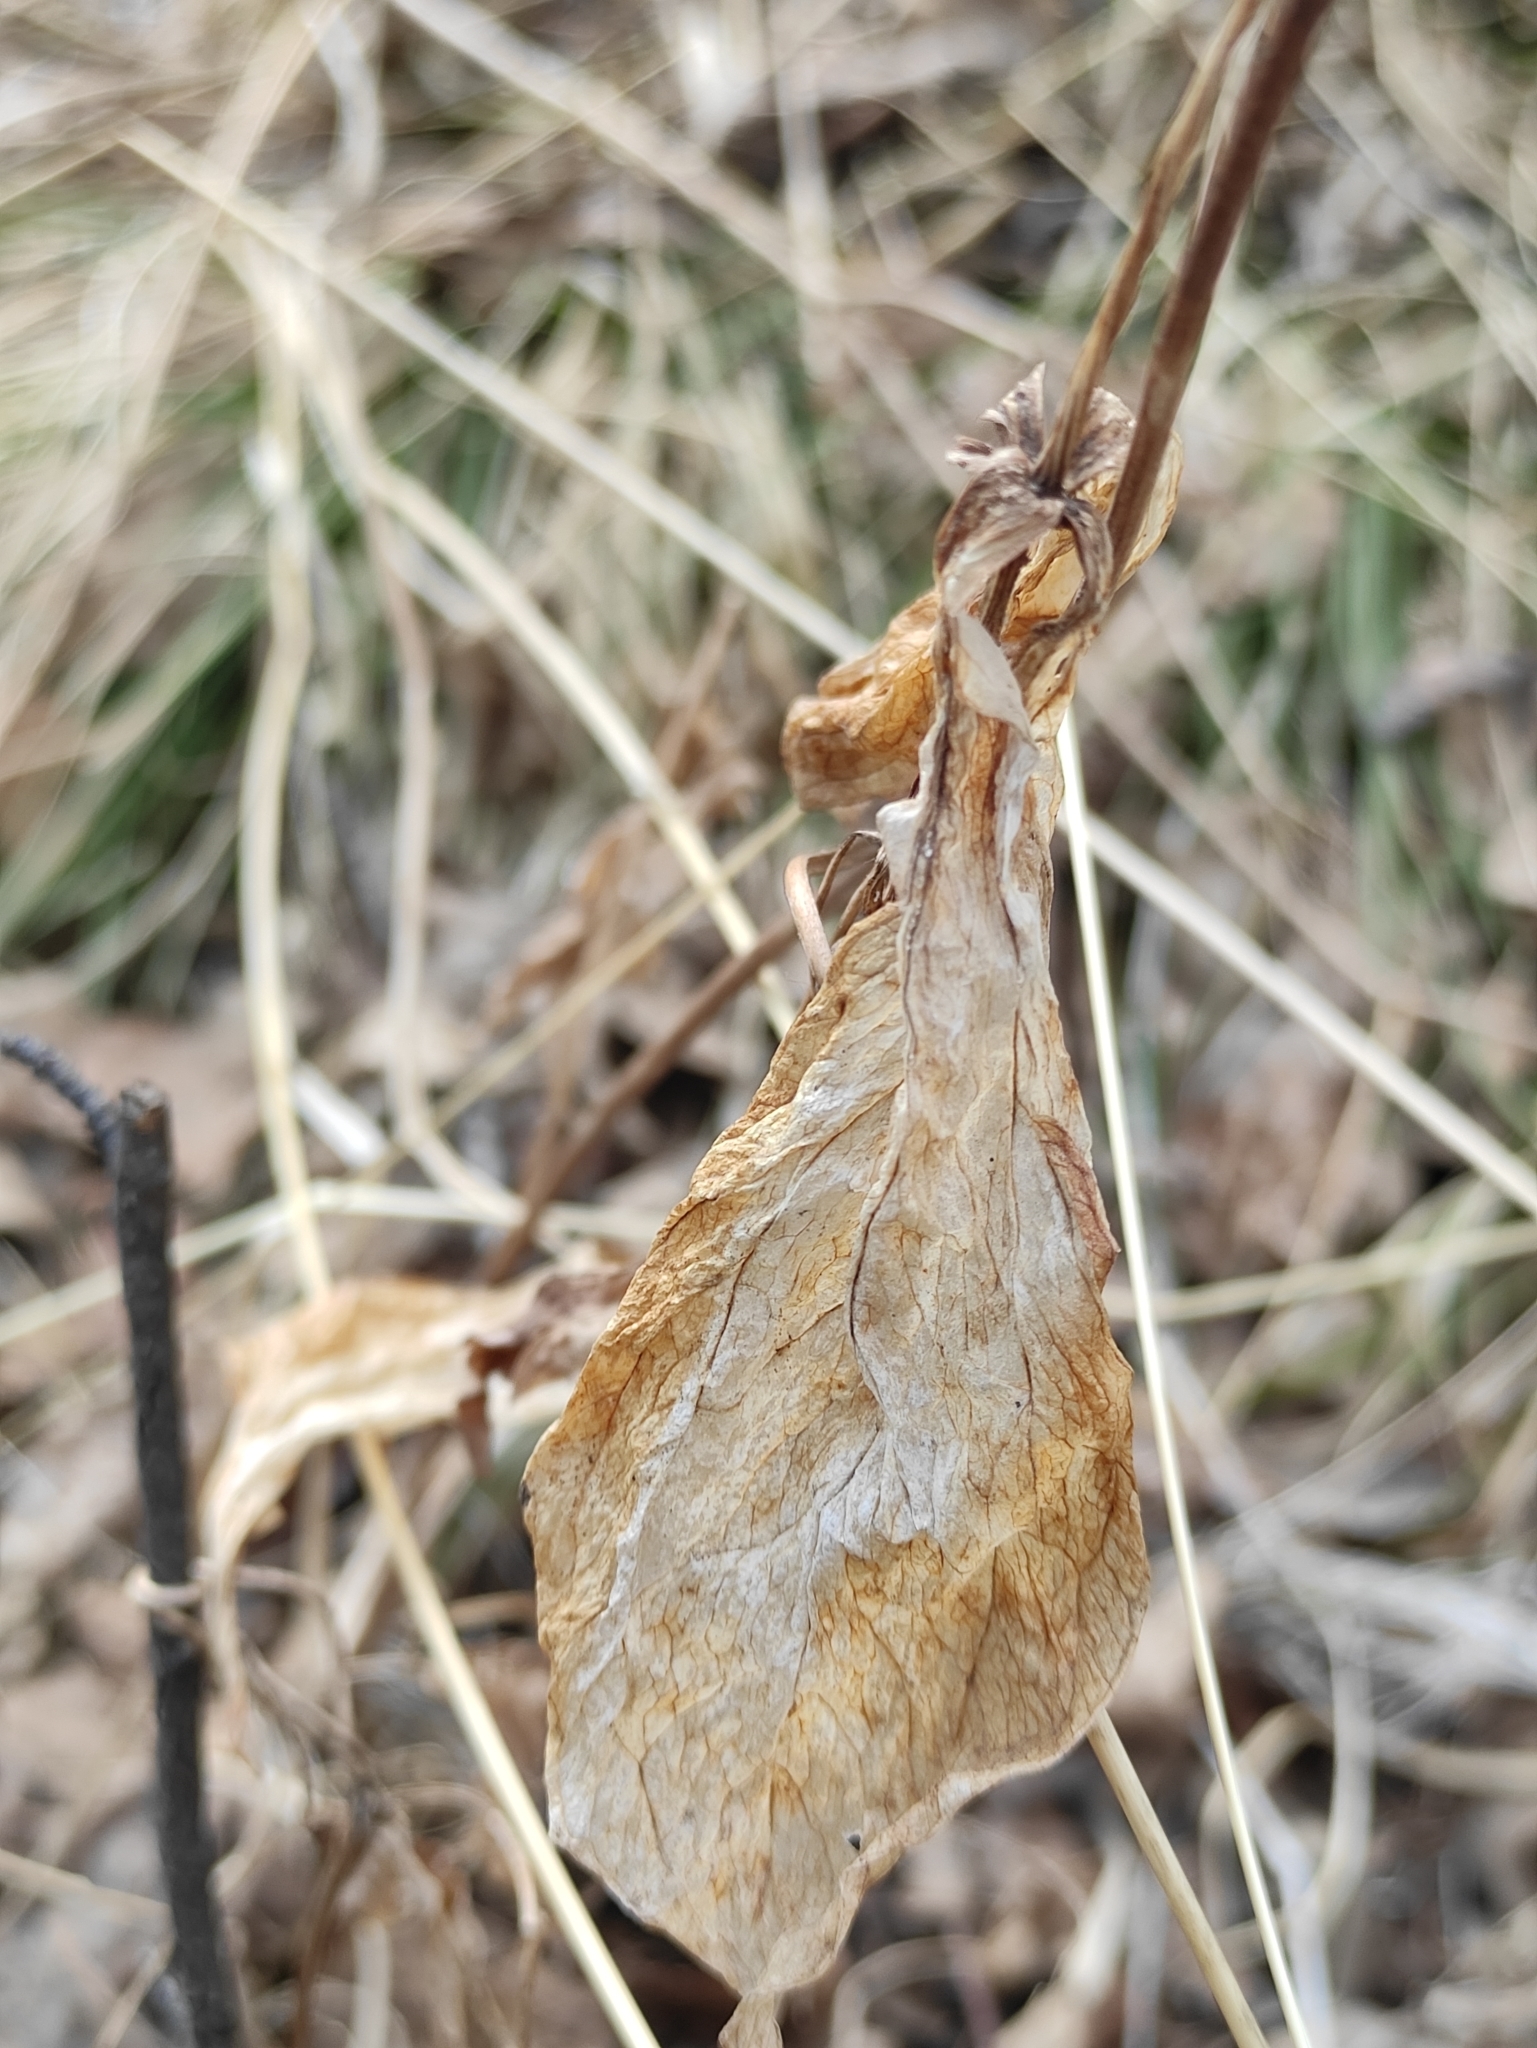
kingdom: Plantae
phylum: Tracheophyta
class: Liliopsida
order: Liliales
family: Melanthiaceae
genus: Paris
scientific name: Paris verticillata
